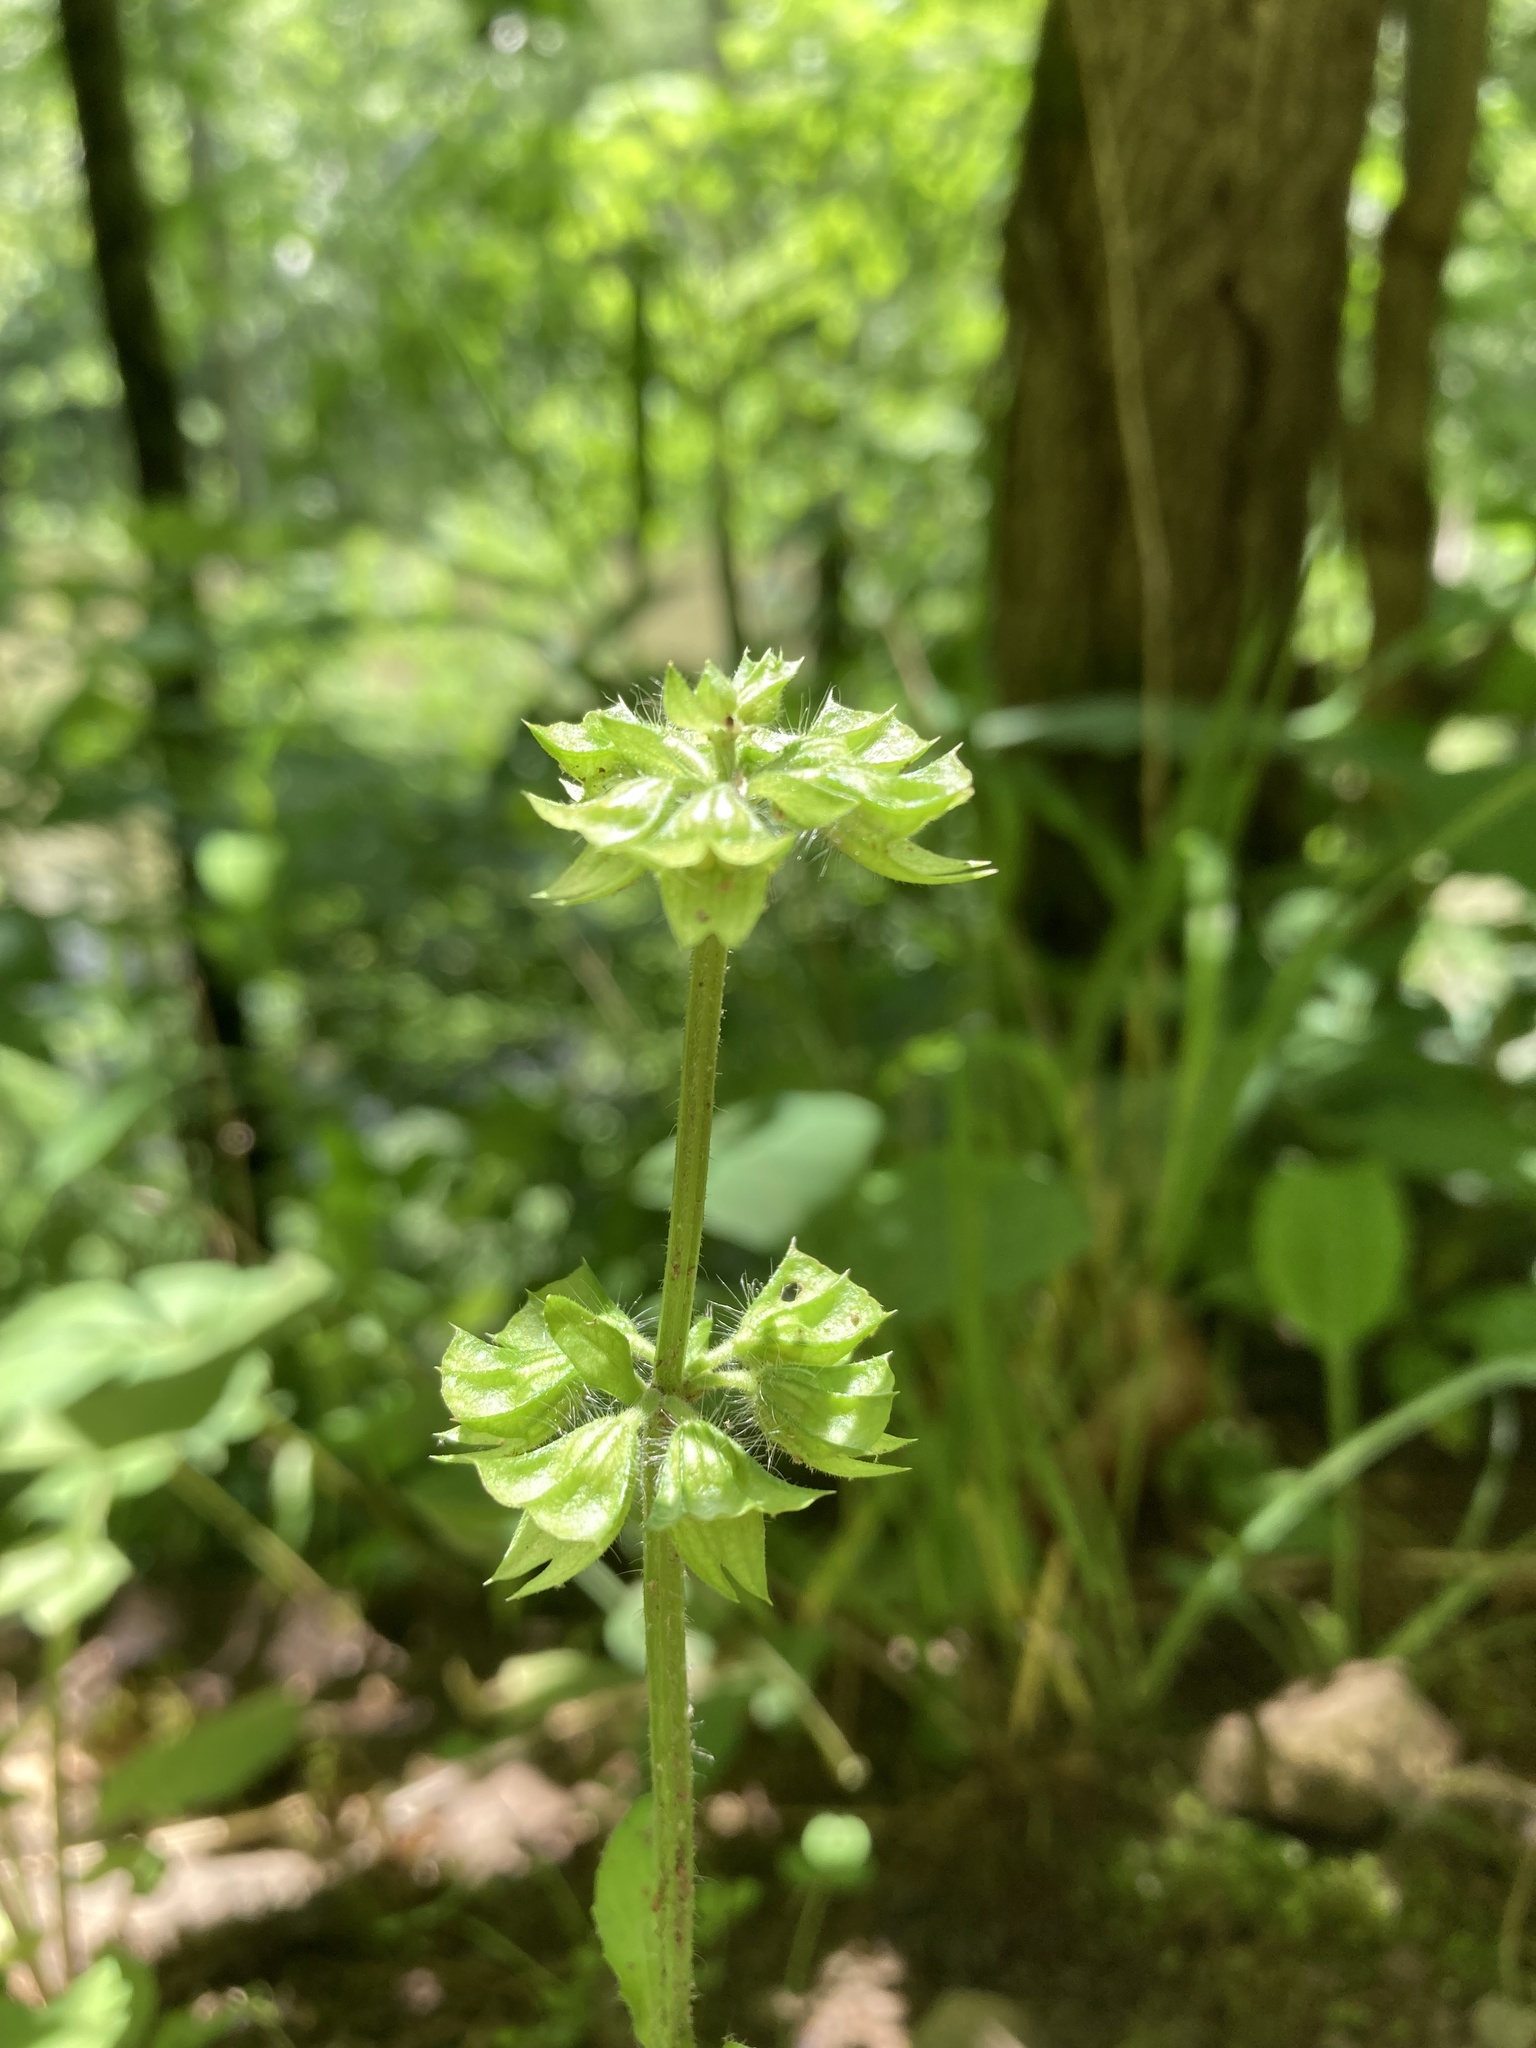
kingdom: Plantae
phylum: Tracheophyta
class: Magnoliopsida
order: Lamiales
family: Lamiaceae
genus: Salvia
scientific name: Salvia lyrata
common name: Cancerweed
